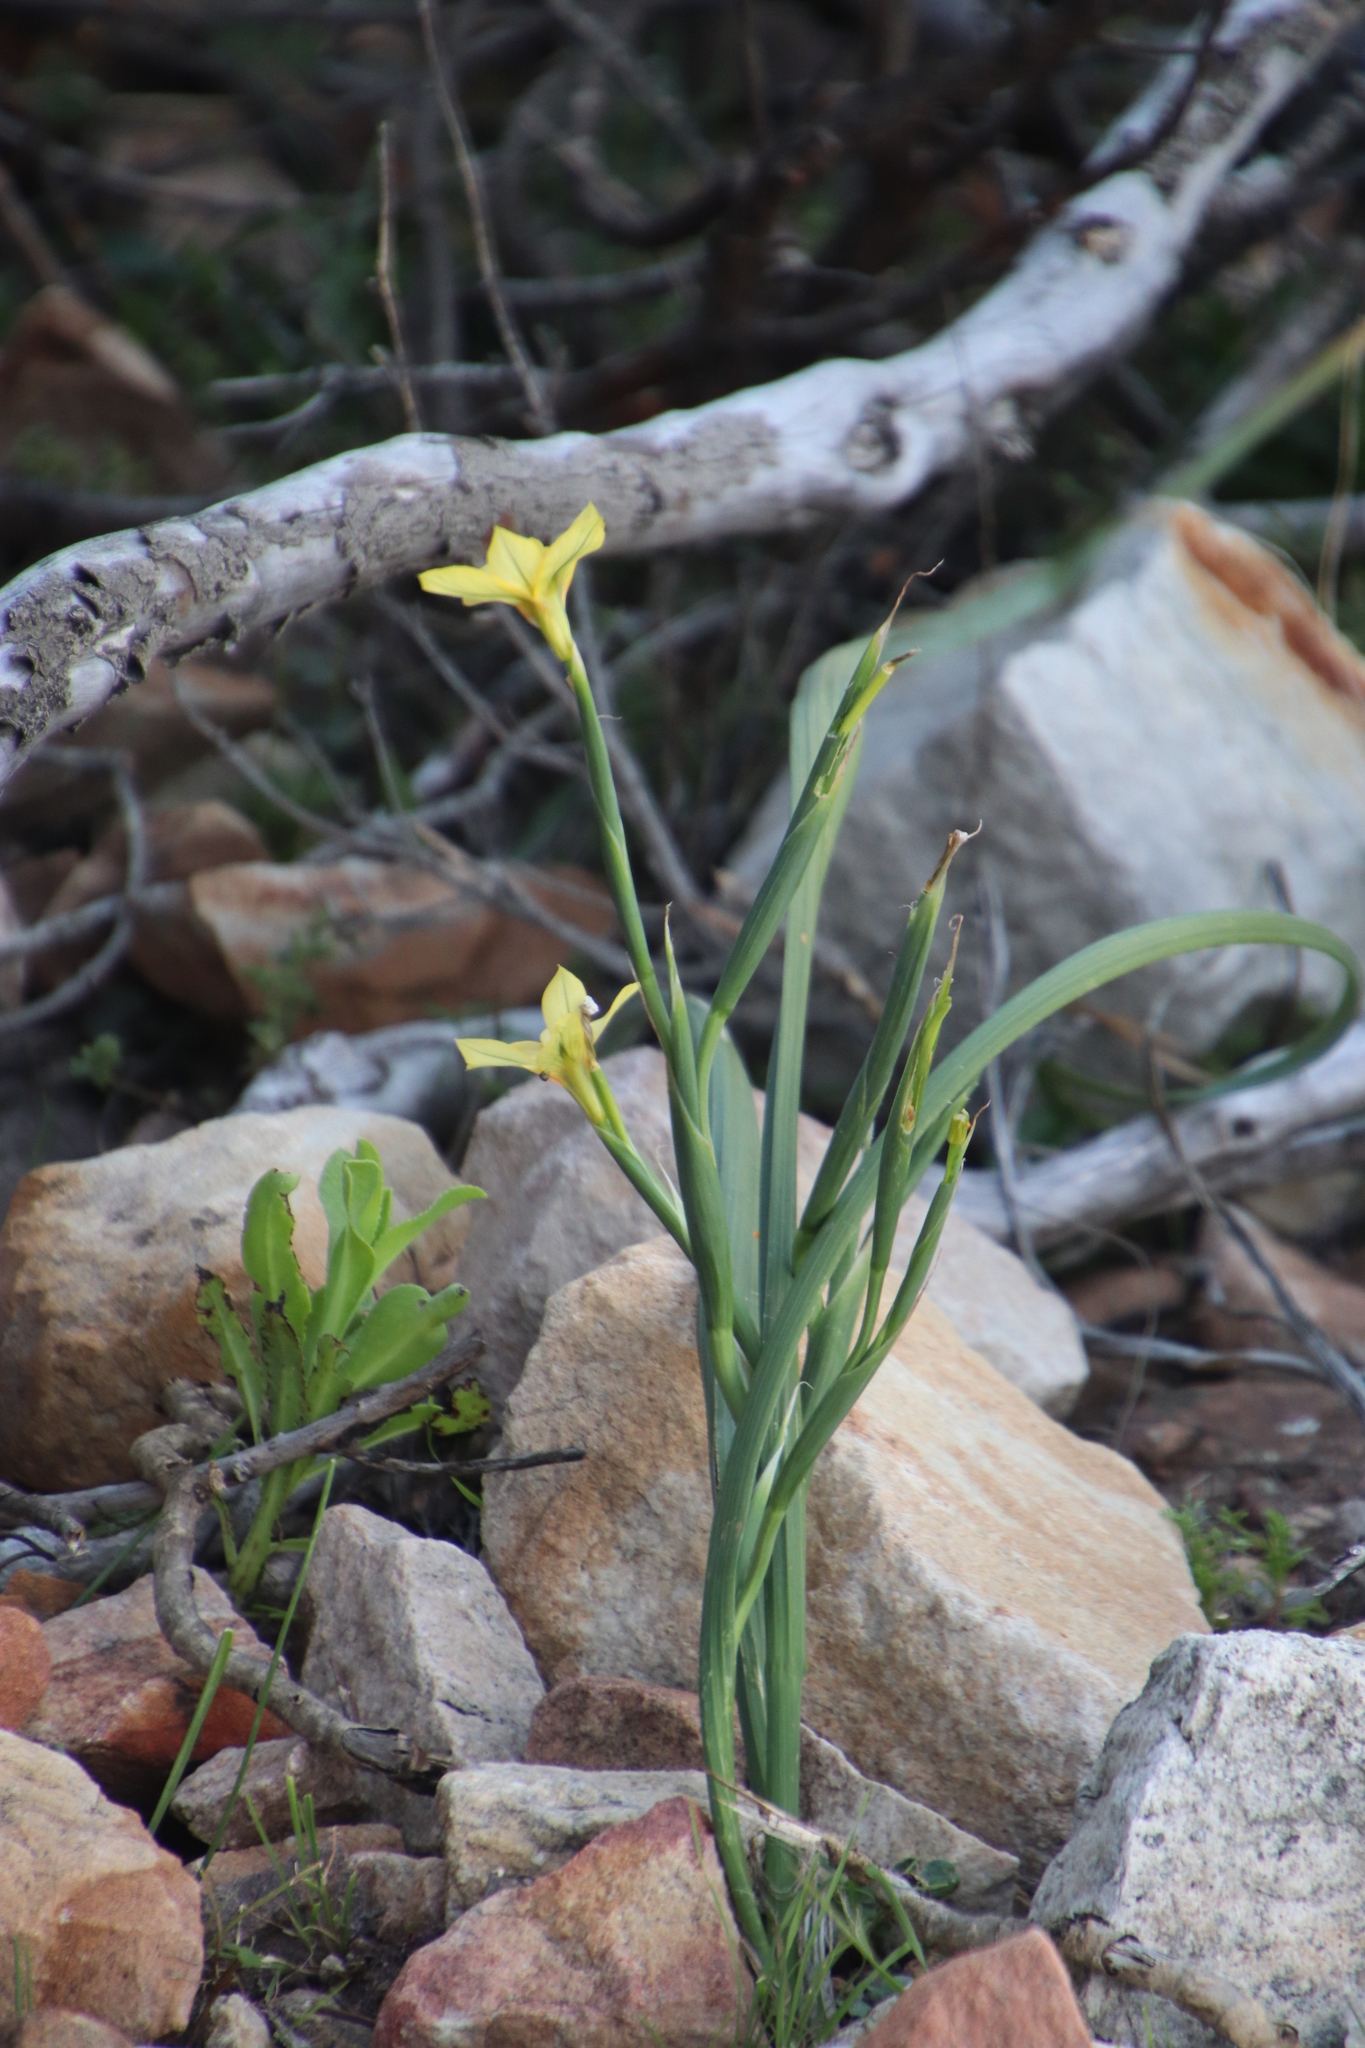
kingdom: Plantae
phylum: Tracheophyta
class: Liliopsida
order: Asparagales
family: Iridaceae
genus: Moraea
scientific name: Moraea ochroleuca
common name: Red tulp
